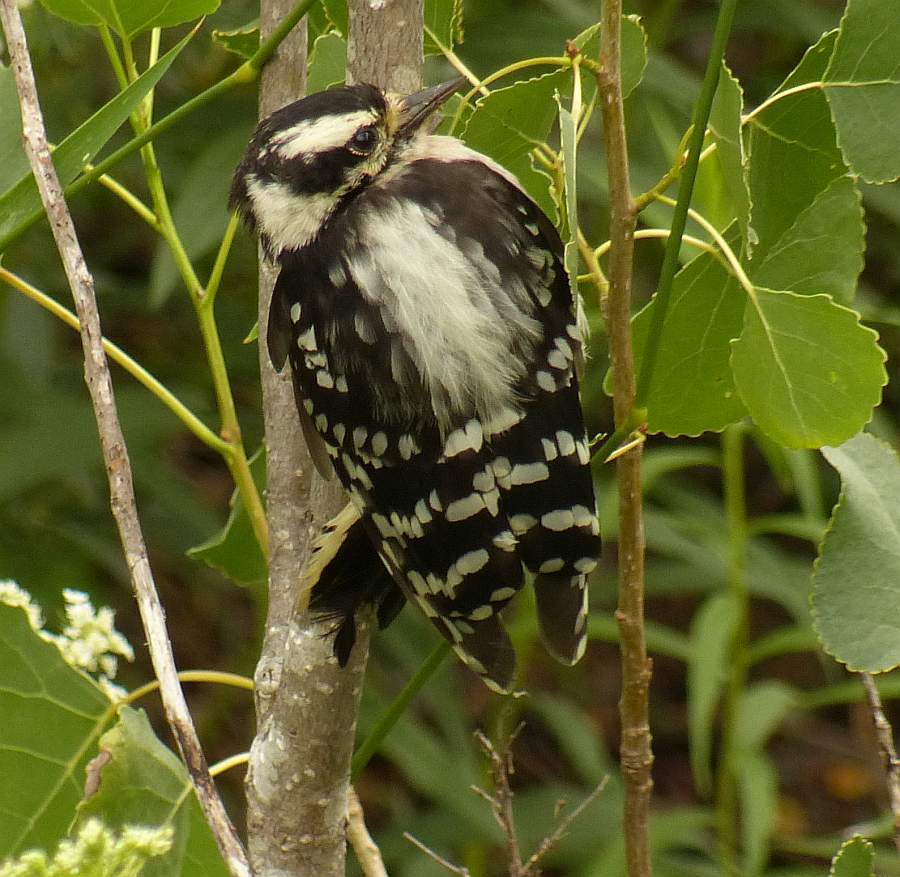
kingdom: Animalia
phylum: Chordata
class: Aves
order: Piciformes
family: Picidae
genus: Dryobates
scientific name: Dryobates pubescens
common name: Downy woodpecker
